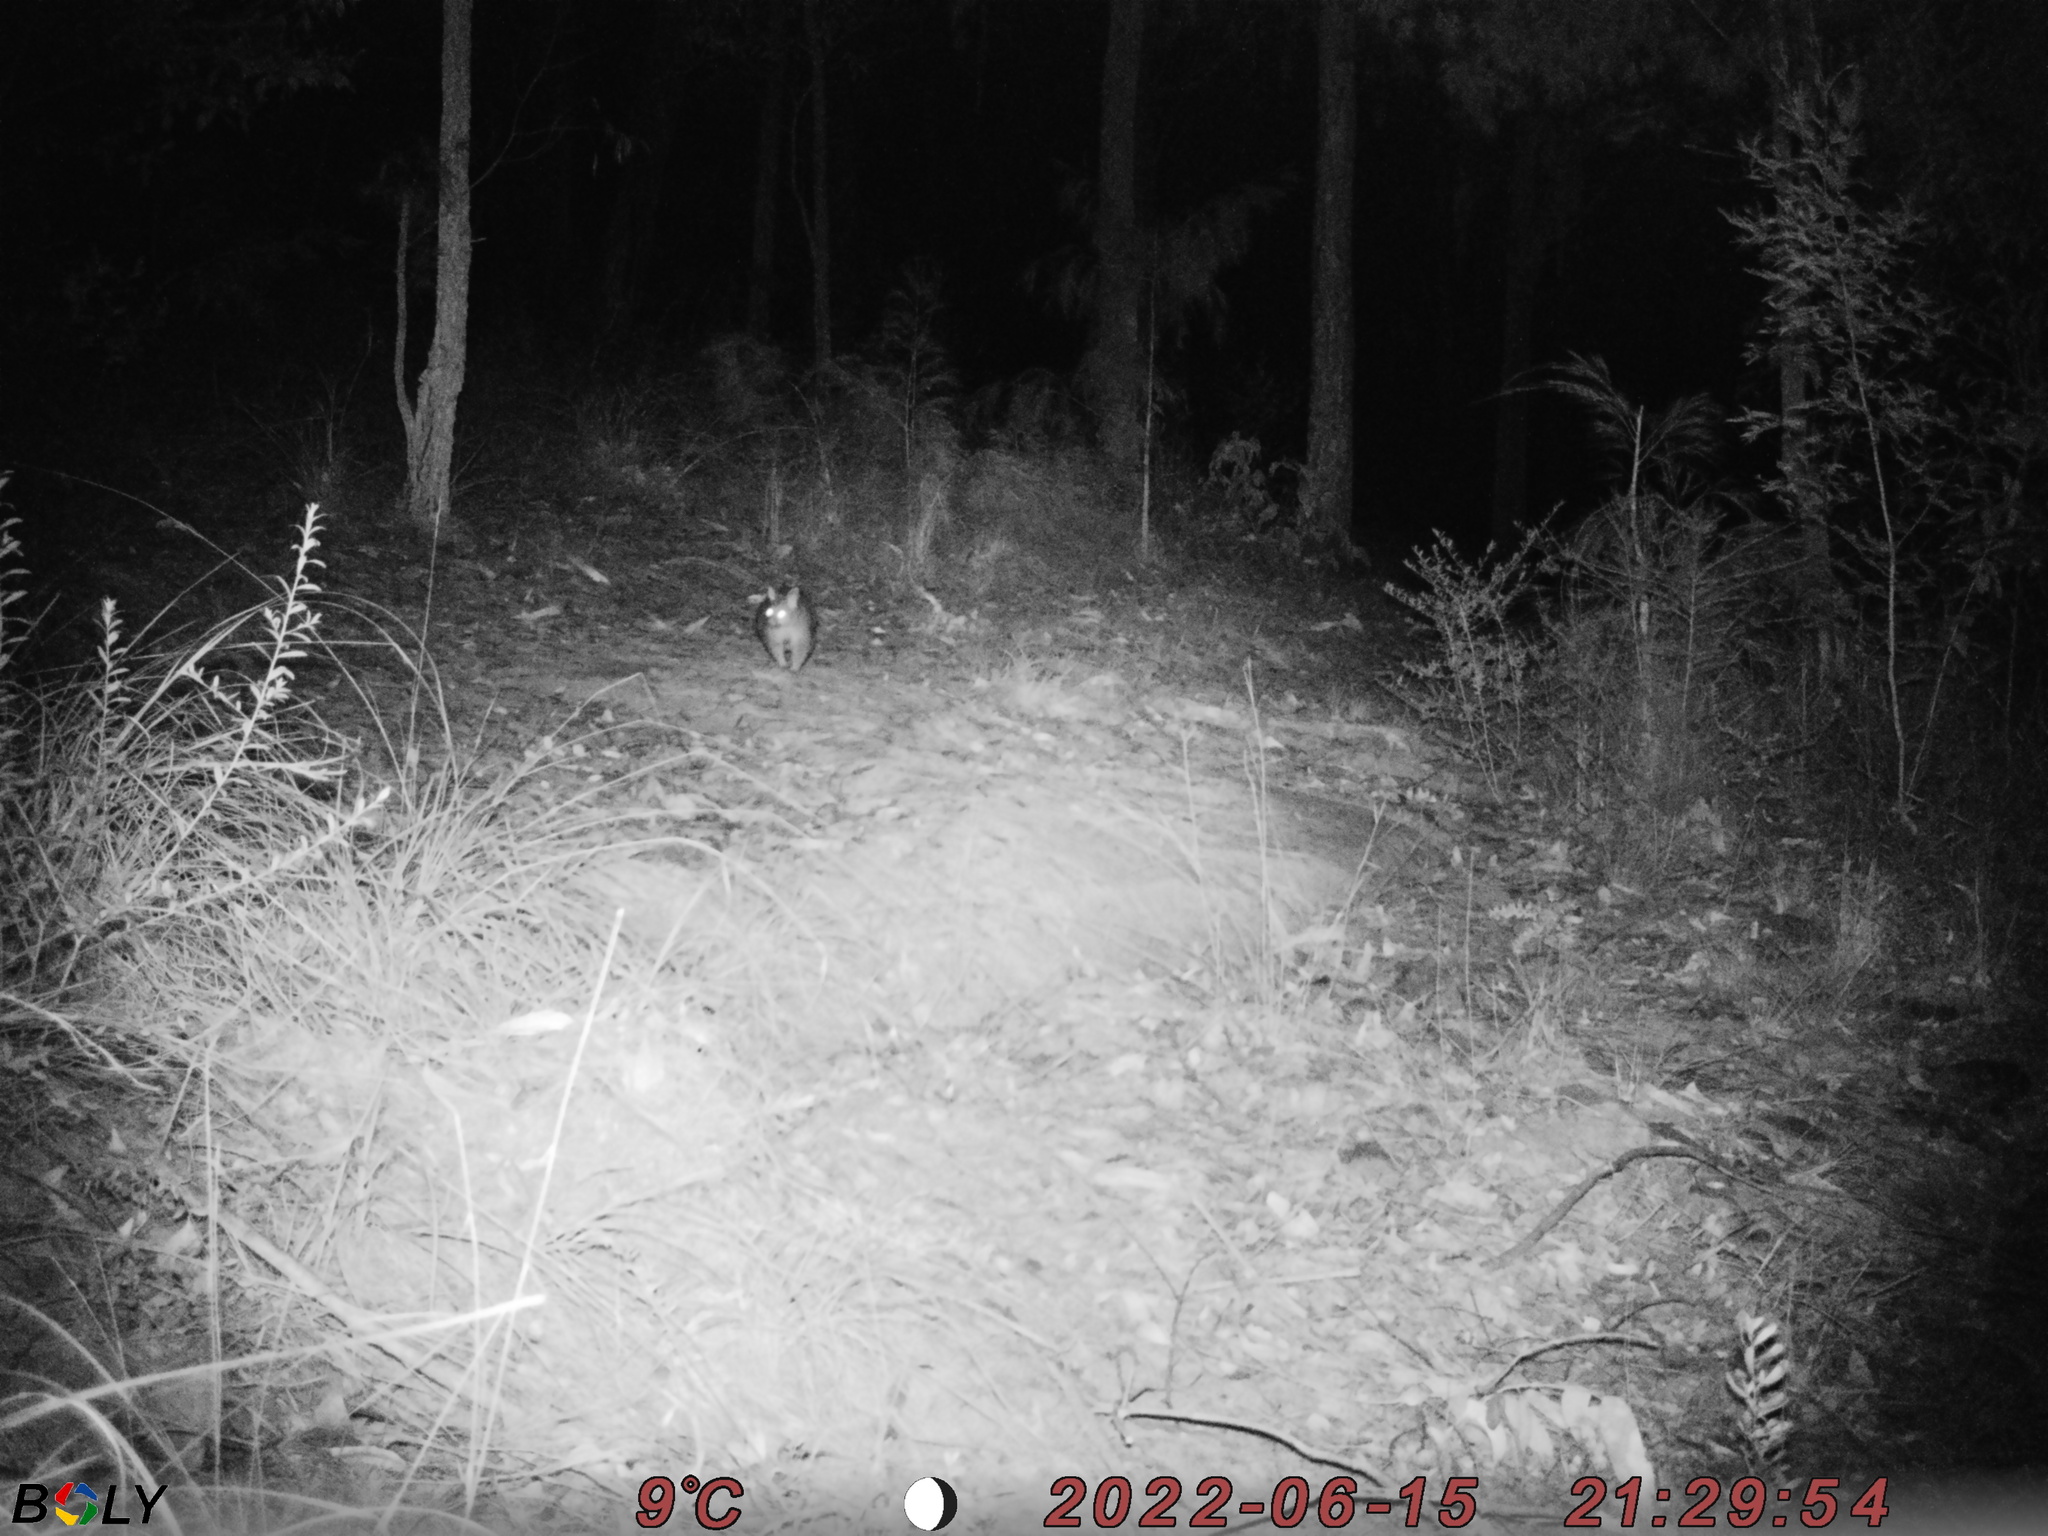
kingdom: Animalia
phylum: Chordata
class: Mammalia
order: Diprotodontia
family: Phalangeridae
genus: Trichosurus
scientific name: Trichosurus vulpecula
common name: Common brushtail
